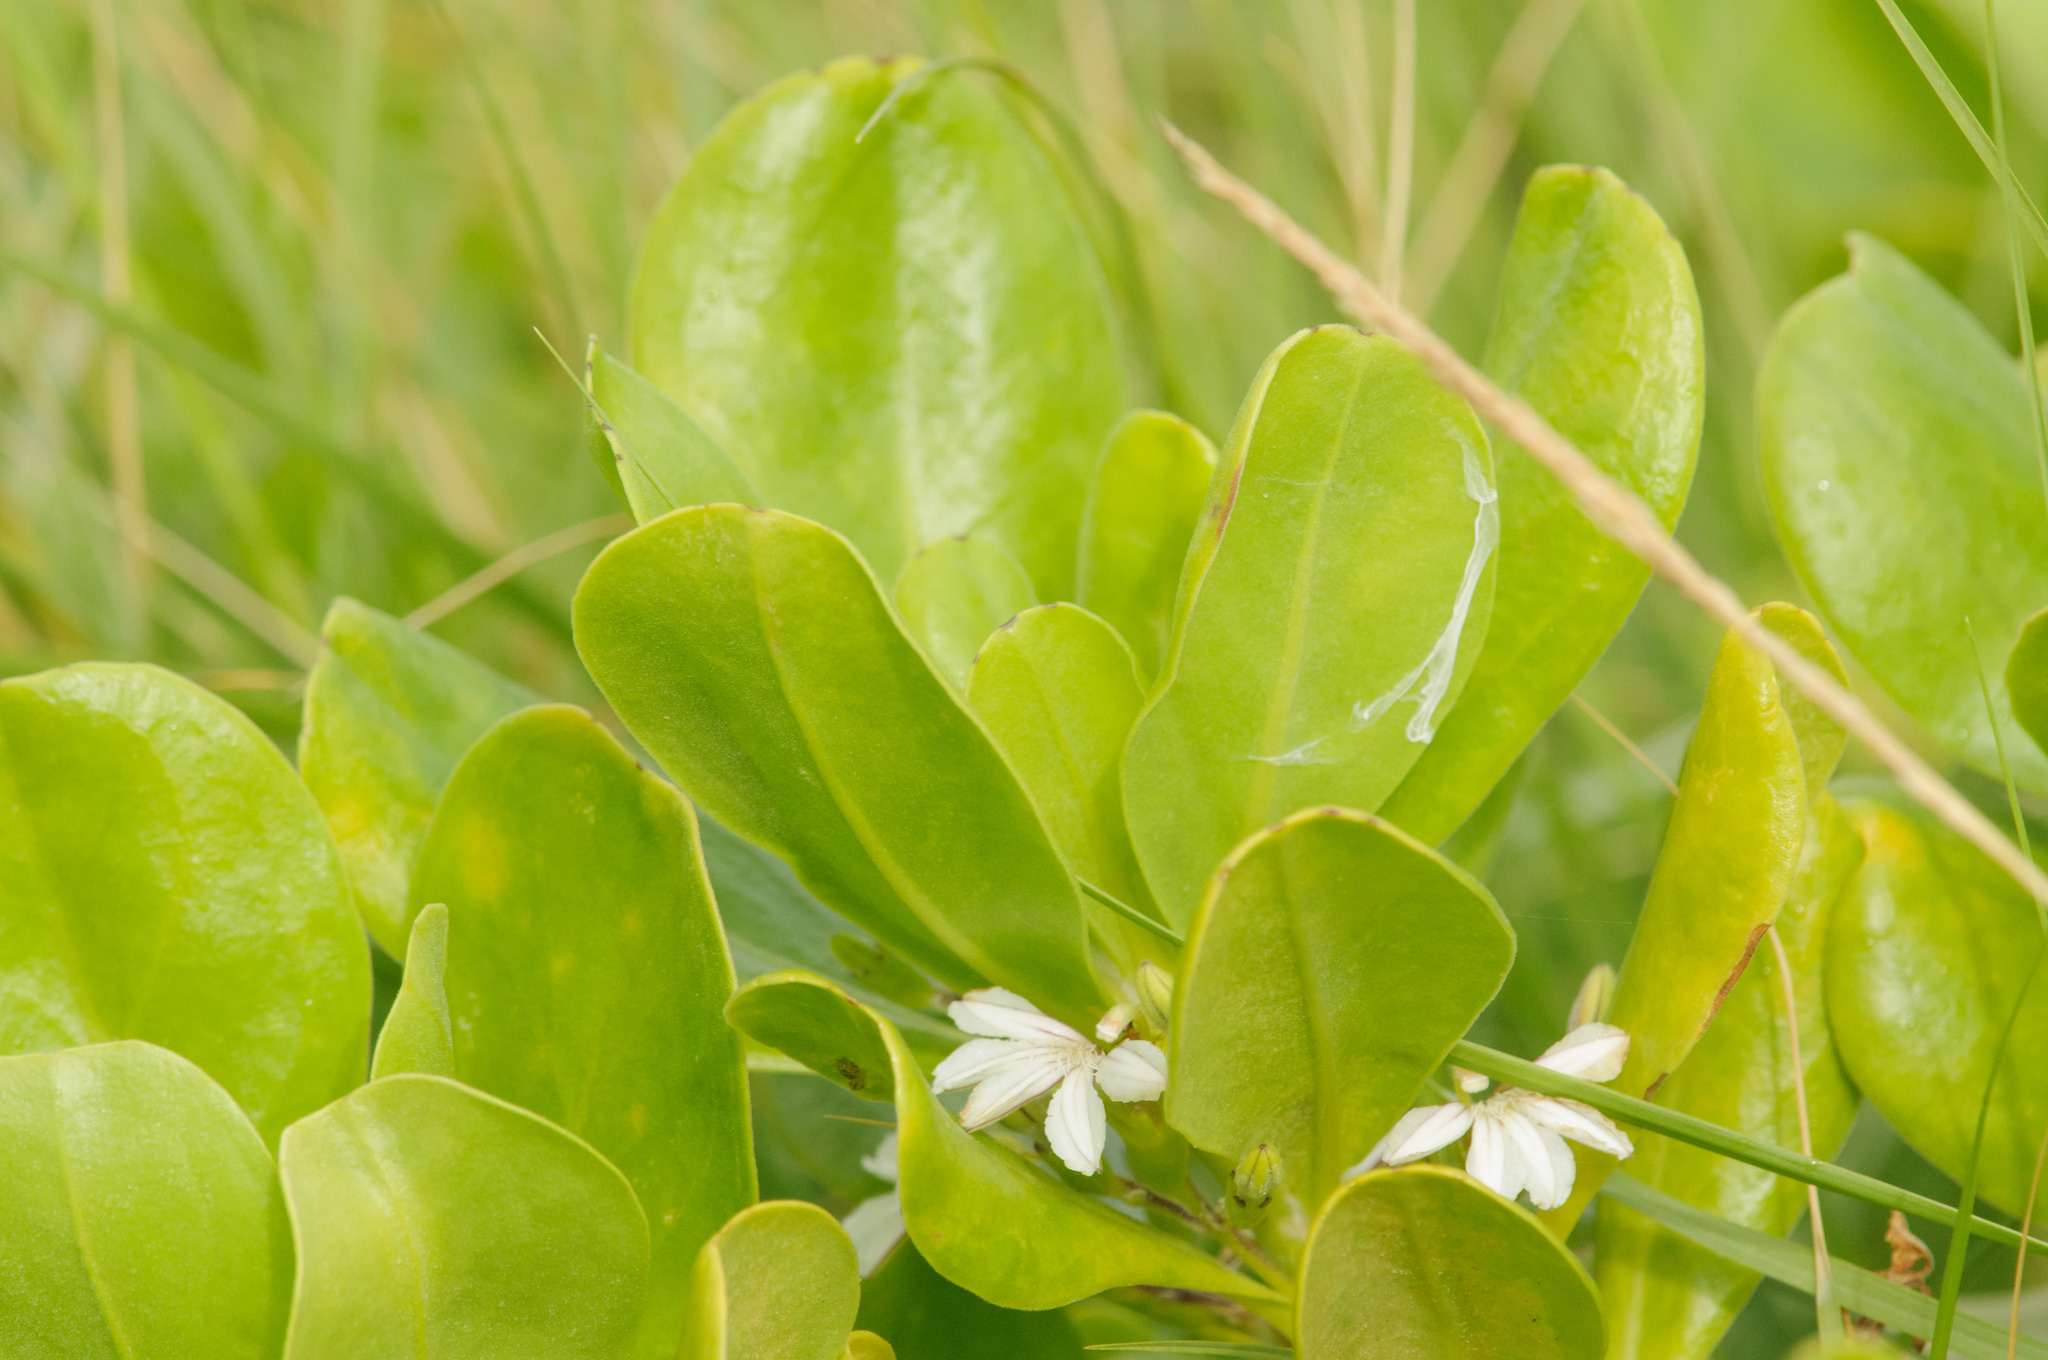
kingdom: Plantae
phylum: Tracheophyta
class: Magnoliopsida
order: Asterales
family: Goodeniaceae
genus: Scaevola
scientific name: Scaevola taccada
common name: Sea lettucetree
